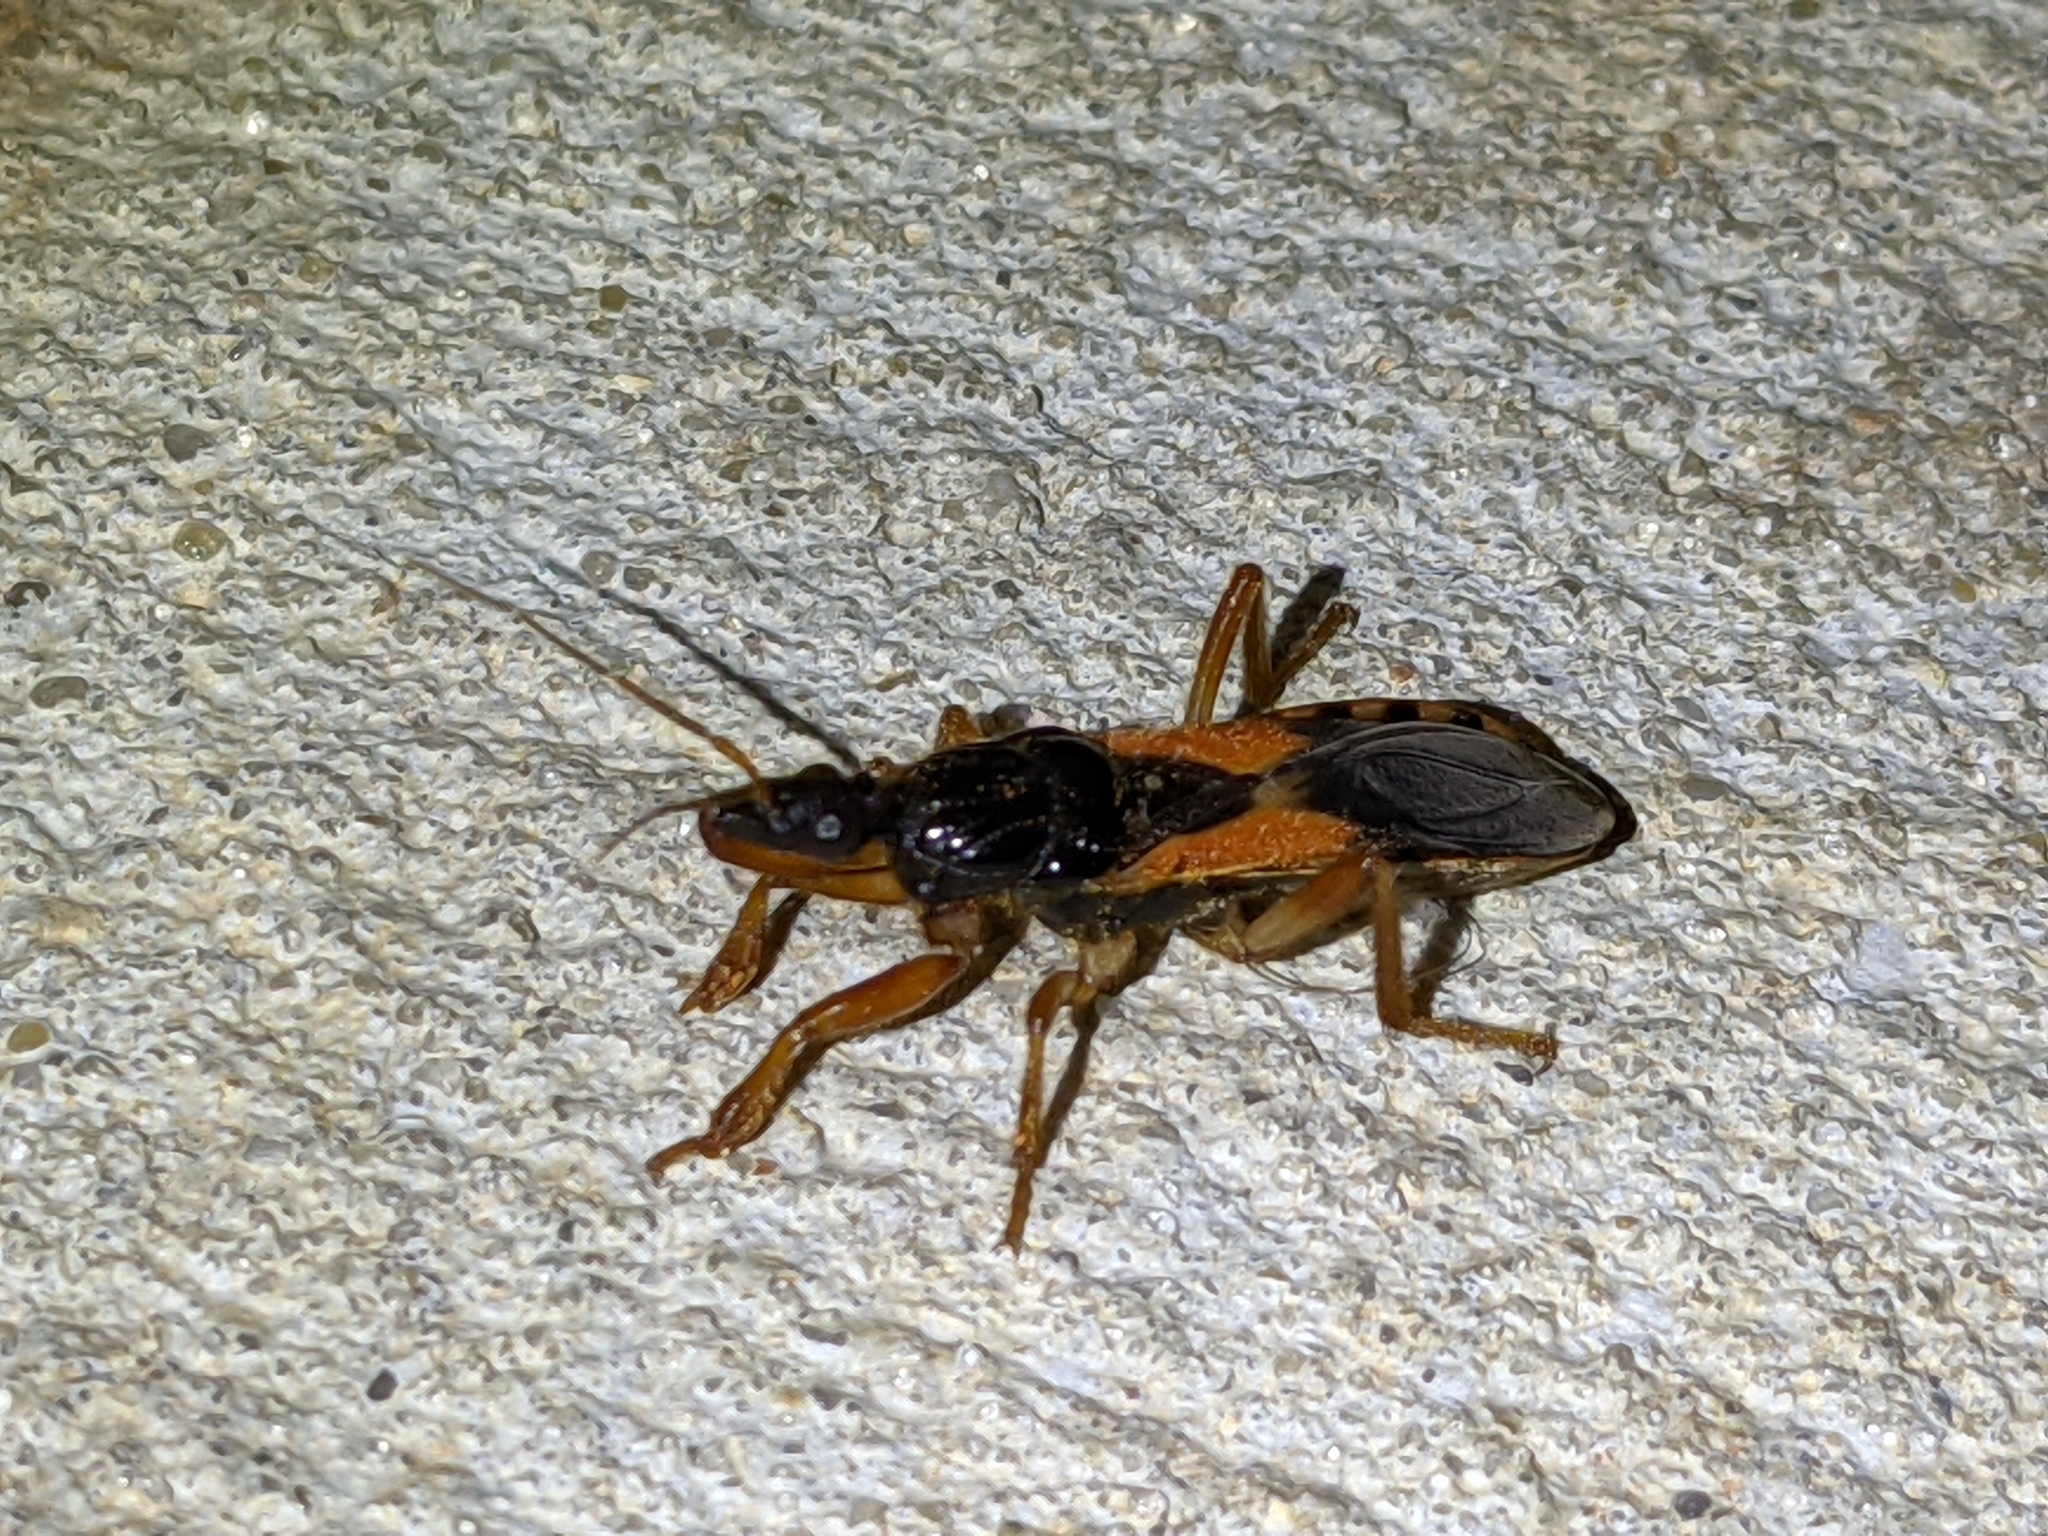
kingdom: Animalia
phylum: Arthropoda
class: Insecta
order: Hemiptera
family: Reduviidae
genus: Sirthenea
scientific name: Sirthenea stria
